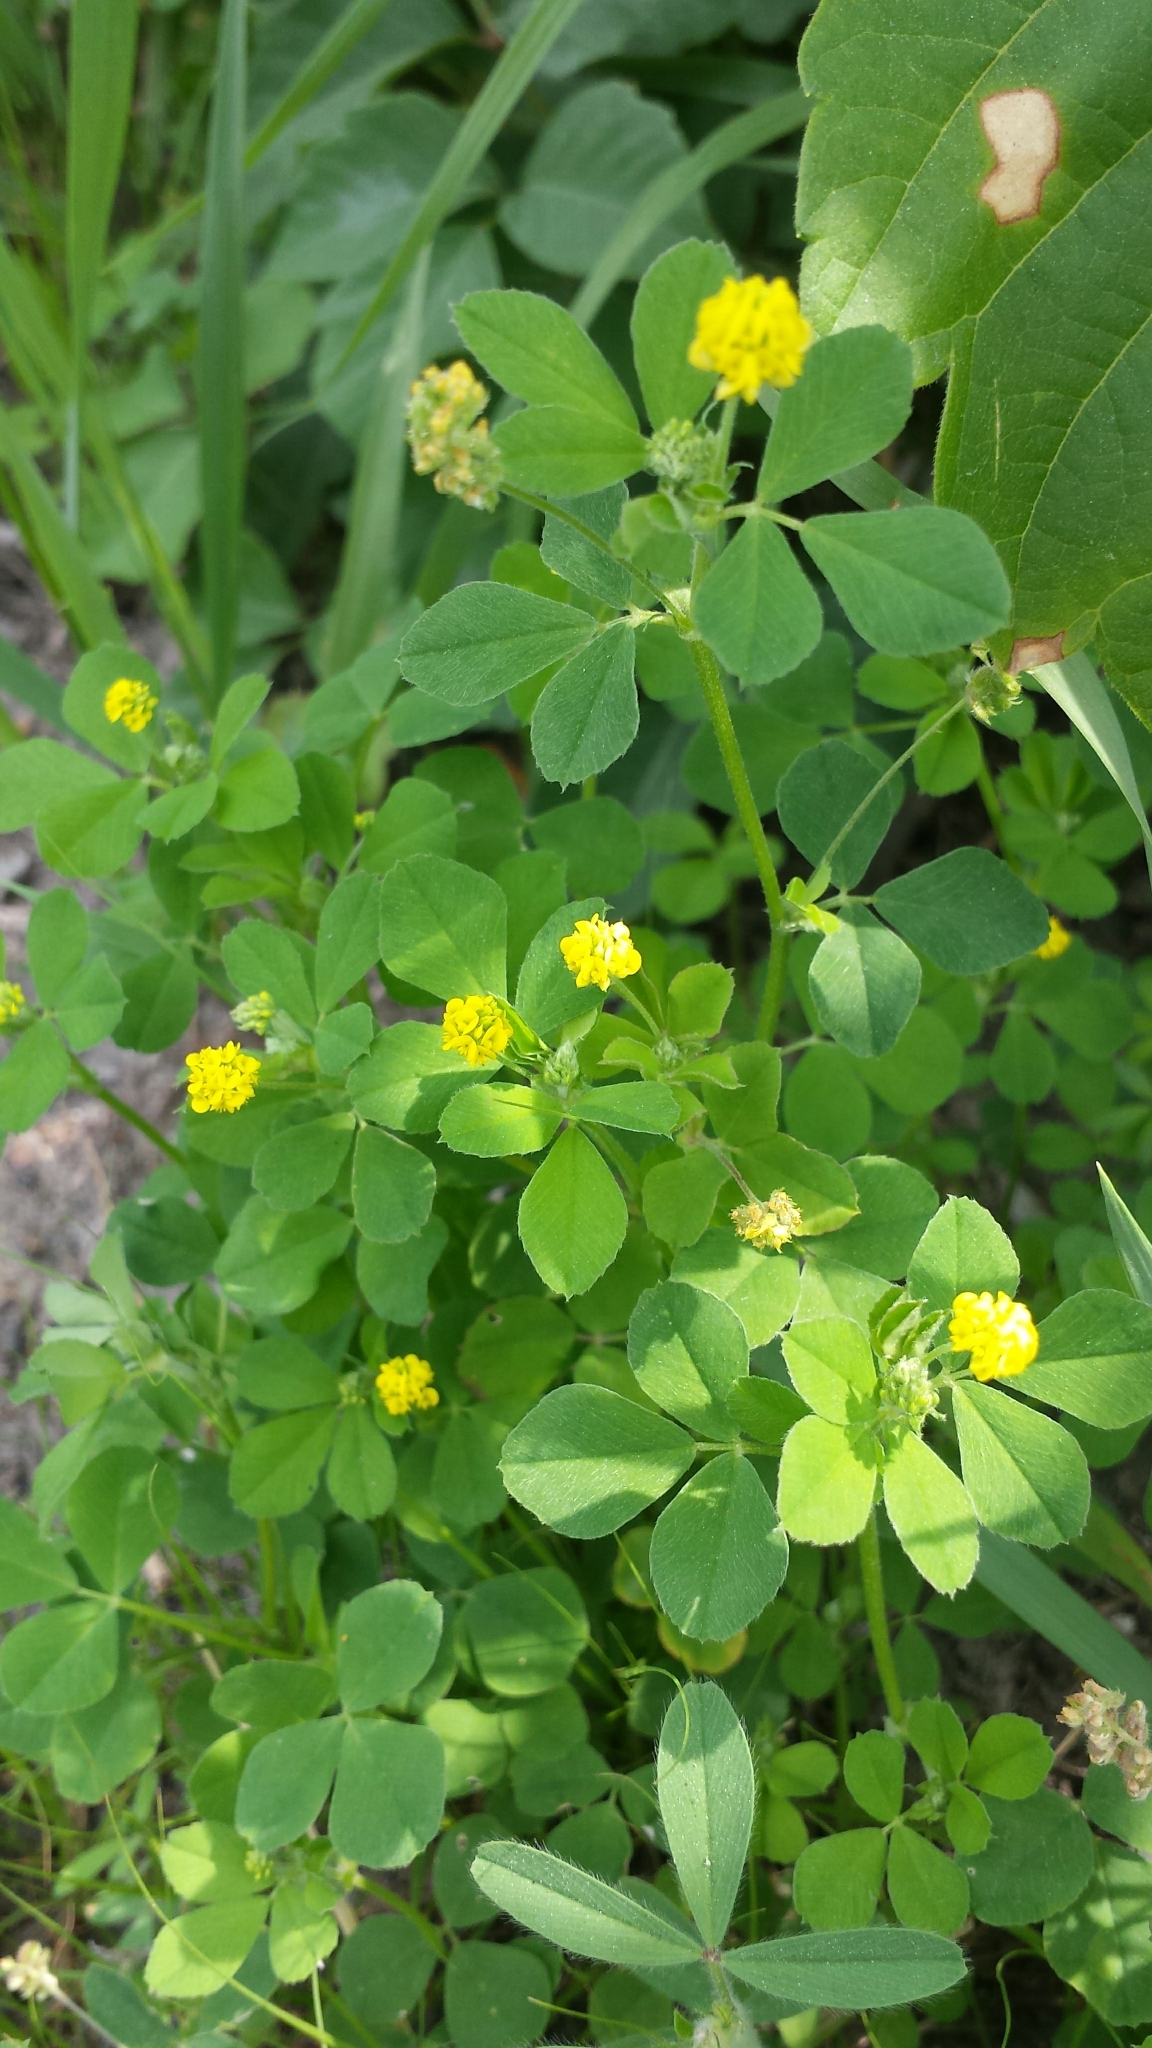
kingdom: Plantae
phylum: Tracheophyta
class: Magnoliopsida
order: Fabales
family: Fabaceae
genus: Medicago
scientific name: Medicago lupulina
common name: Black medick
